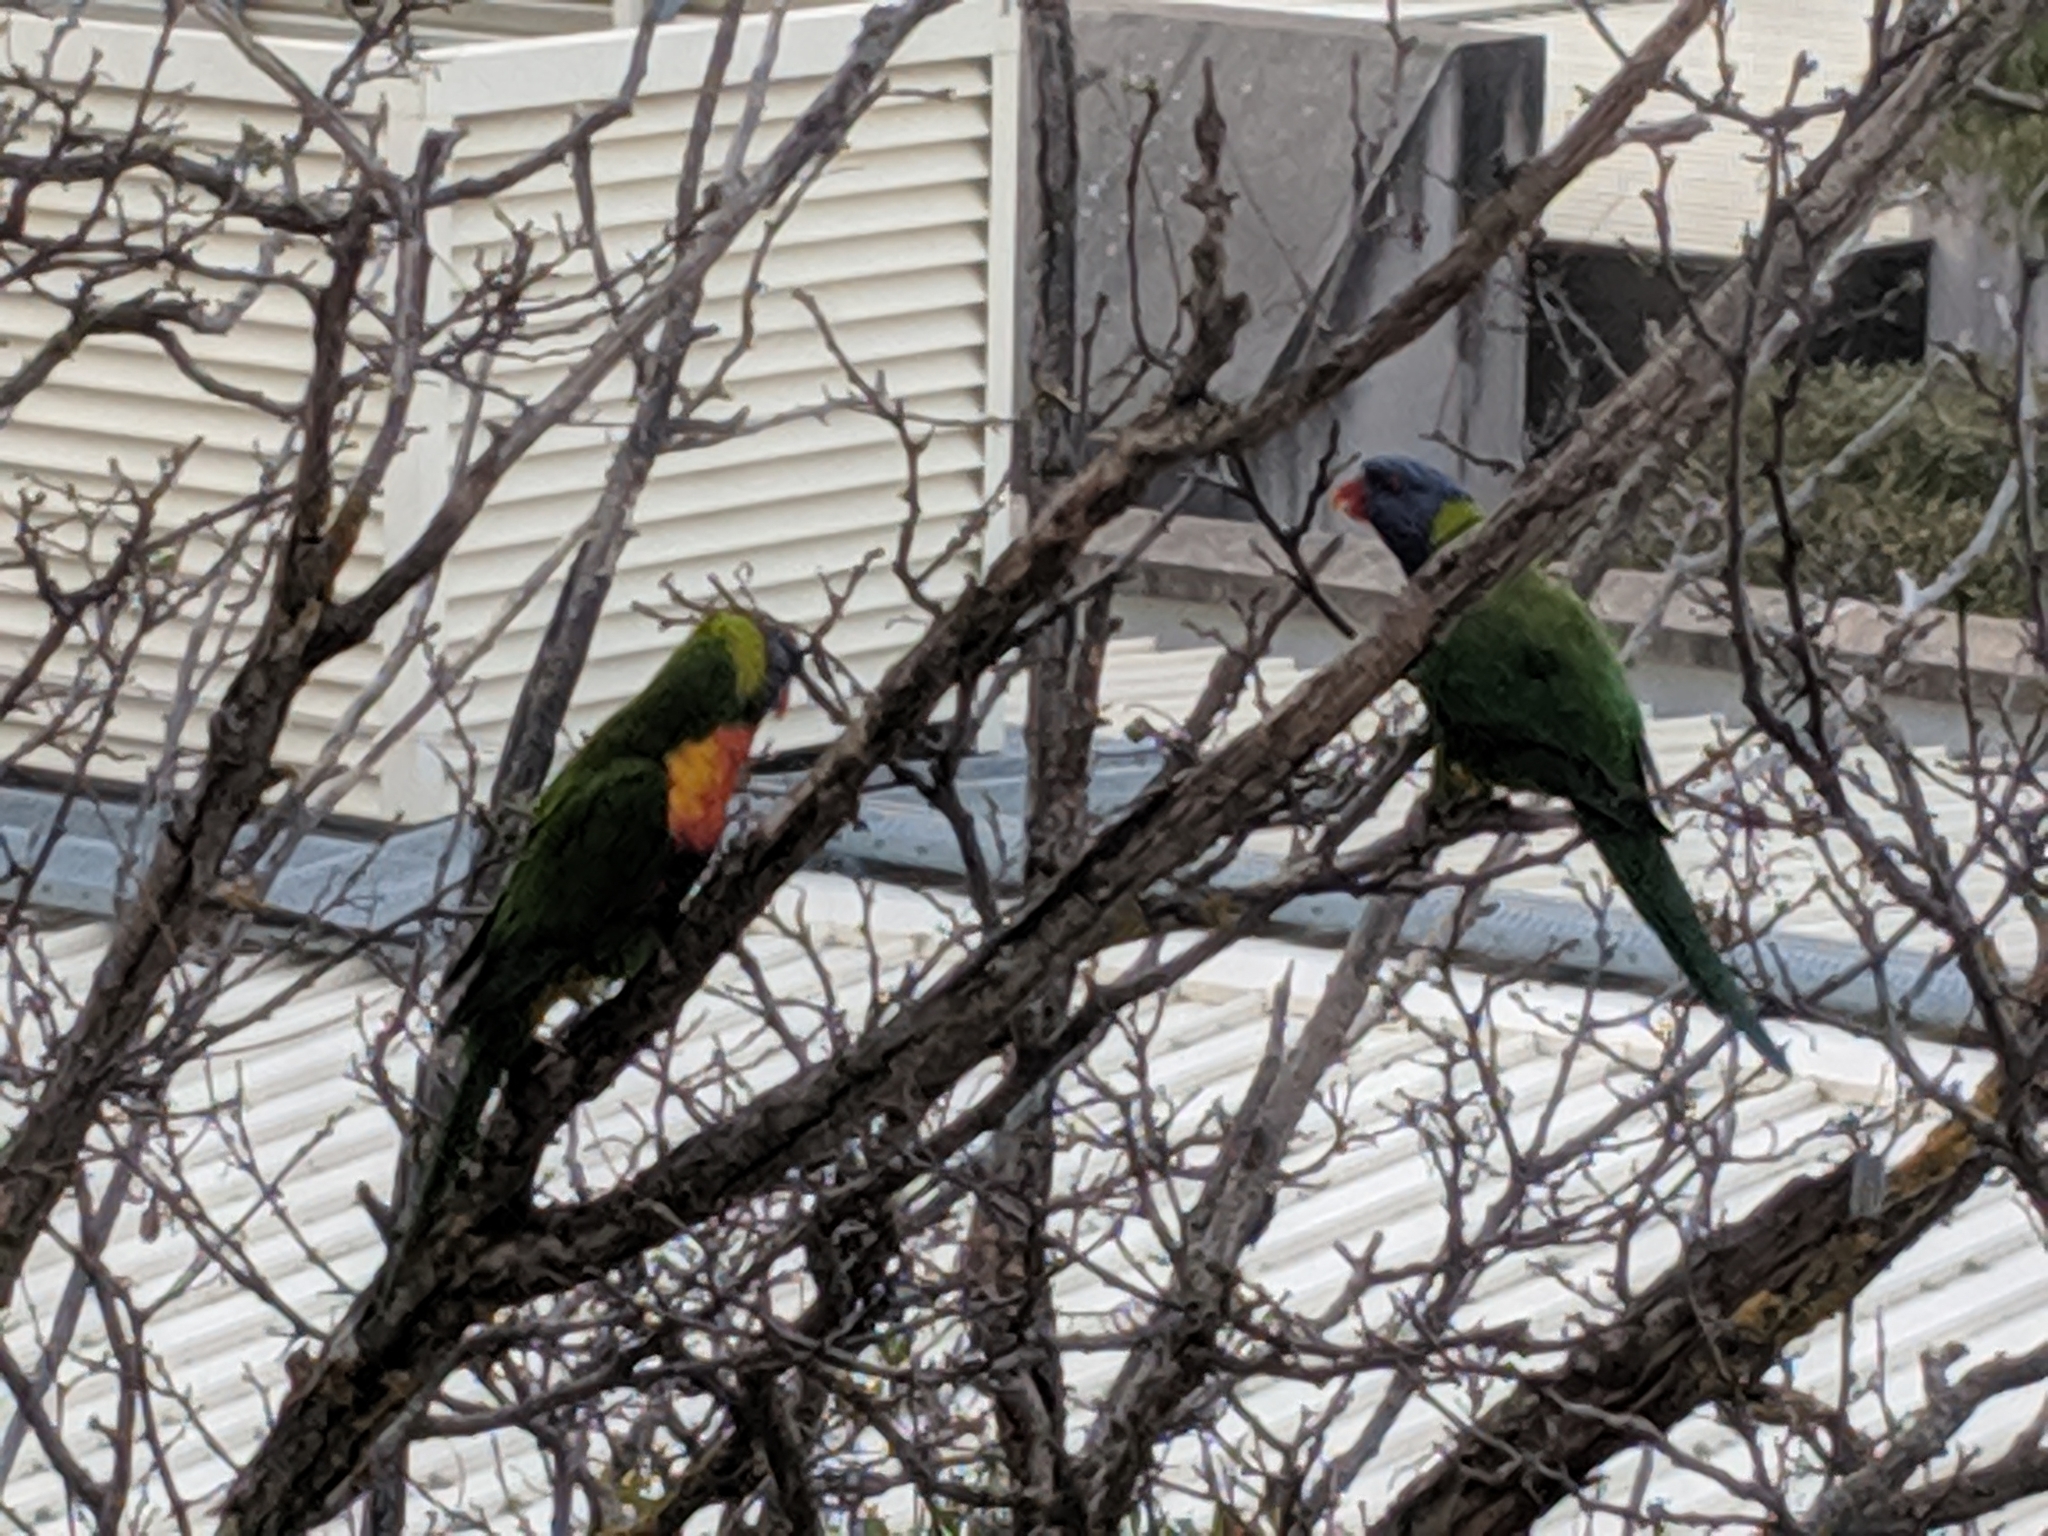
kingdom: Animalia
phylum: Chordata
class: Aves
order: Psittaciformes
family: Psittacidae
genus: Trichoglossus
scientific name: Trichoglossus haematodus
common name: Coconut lorikeet
